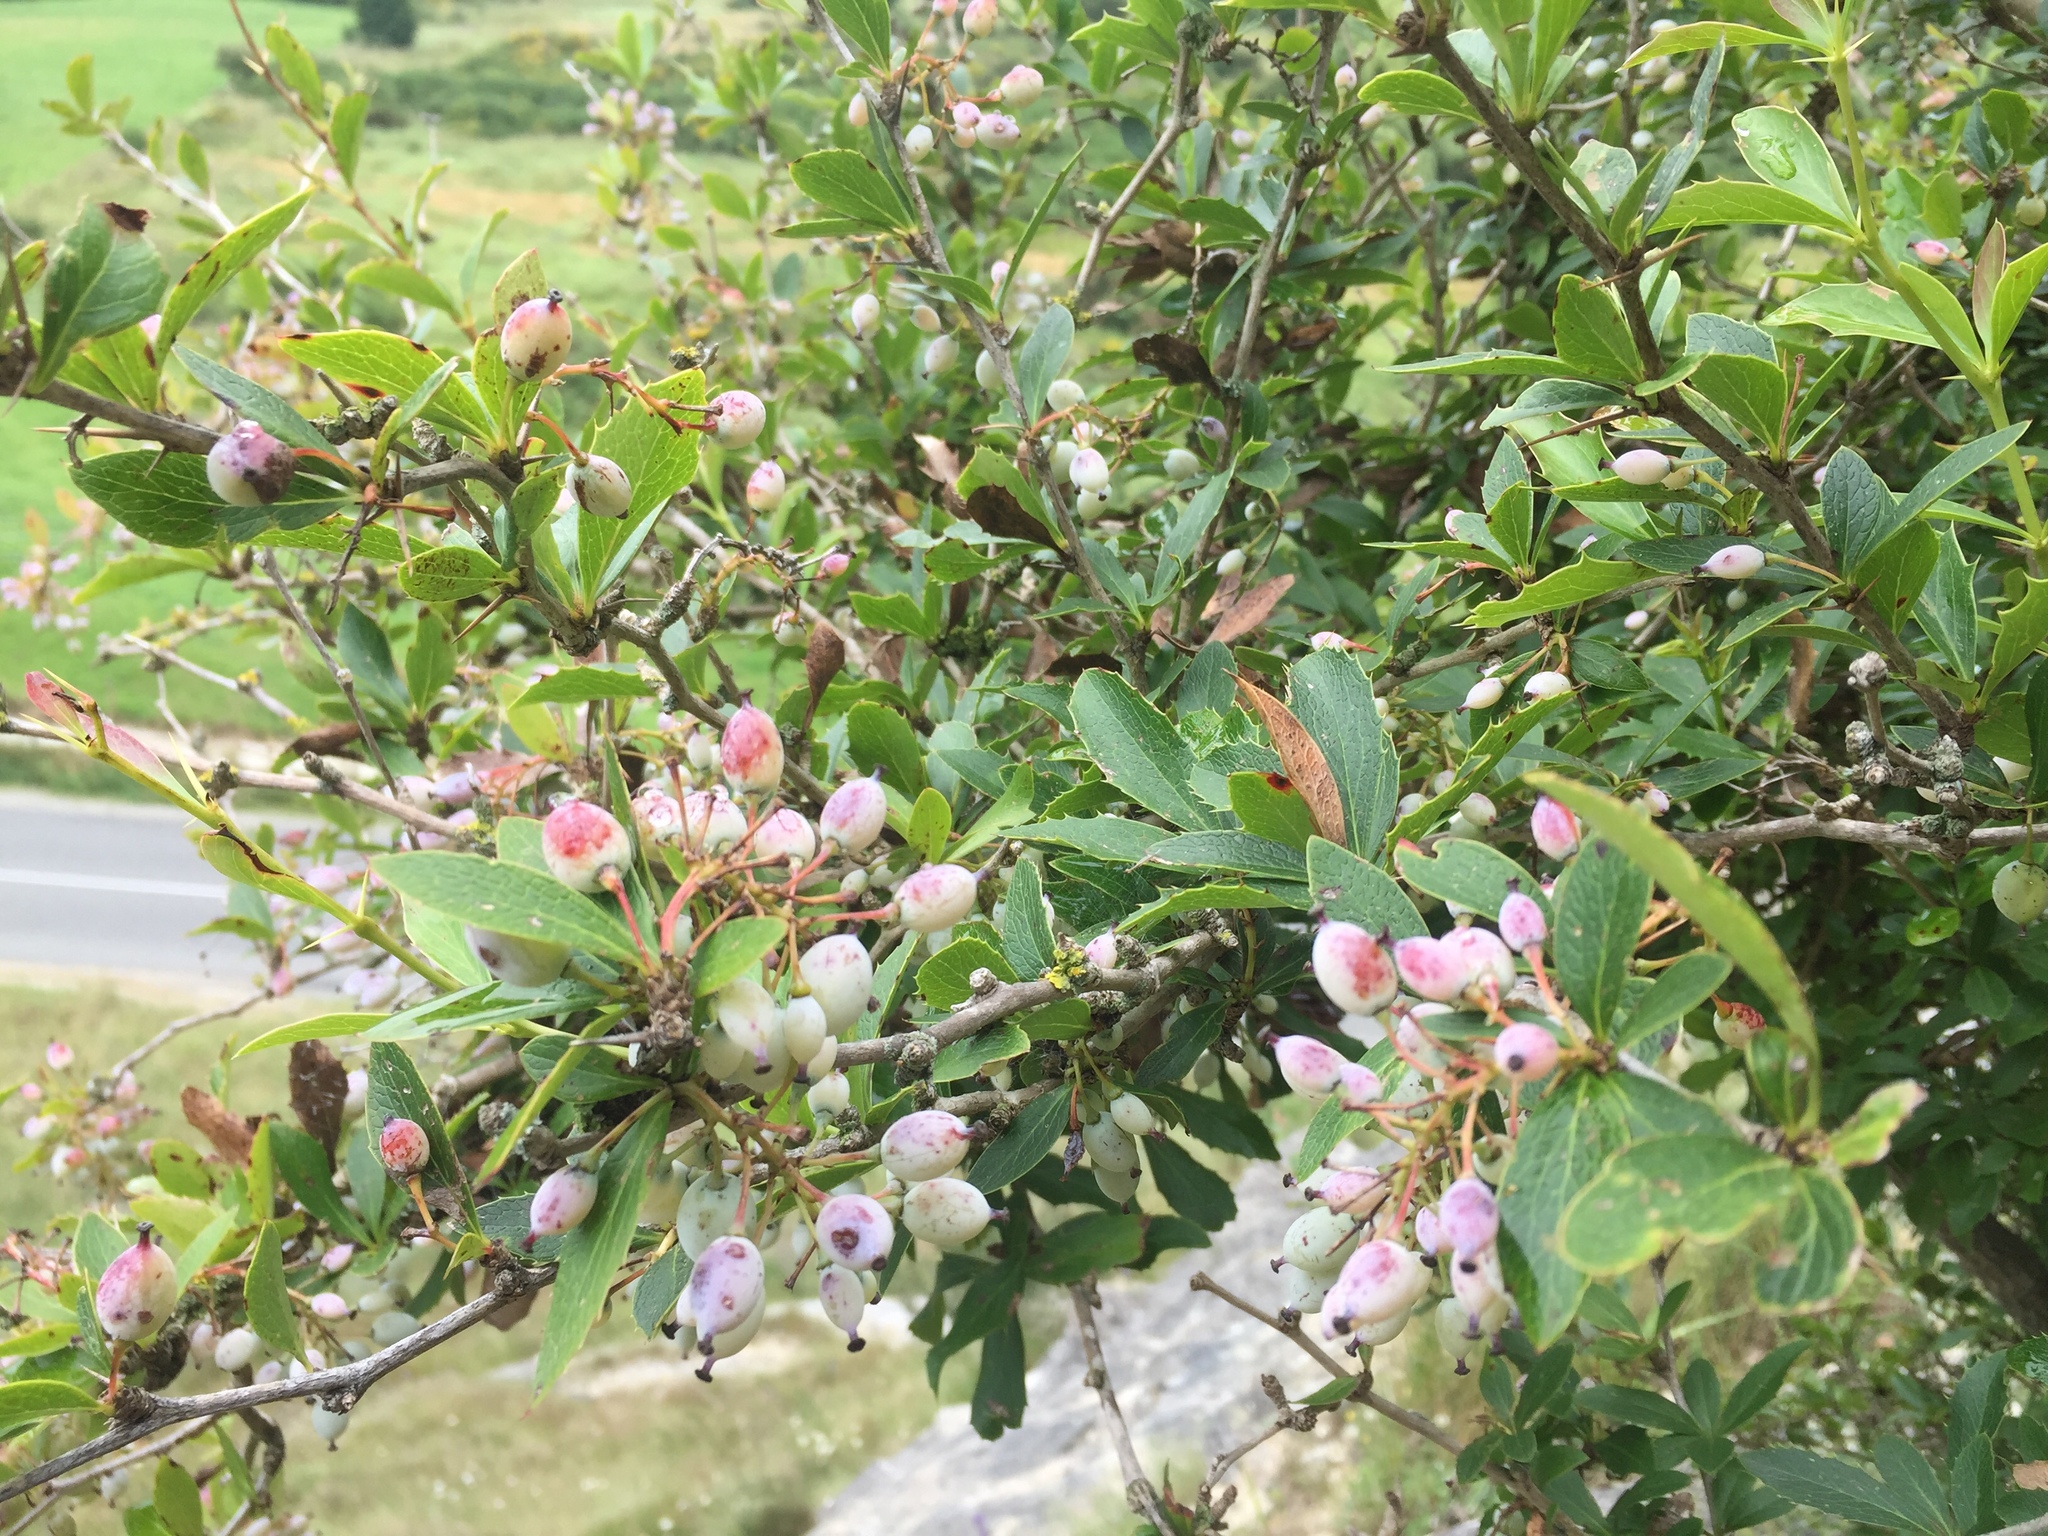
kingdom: Plantae
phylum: Tracheophyta
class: Magnoliopsida
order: Ranunculales
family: Berberidaceae
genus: Berberis
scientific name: Berberis glaucocarpa
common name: Great barberry
